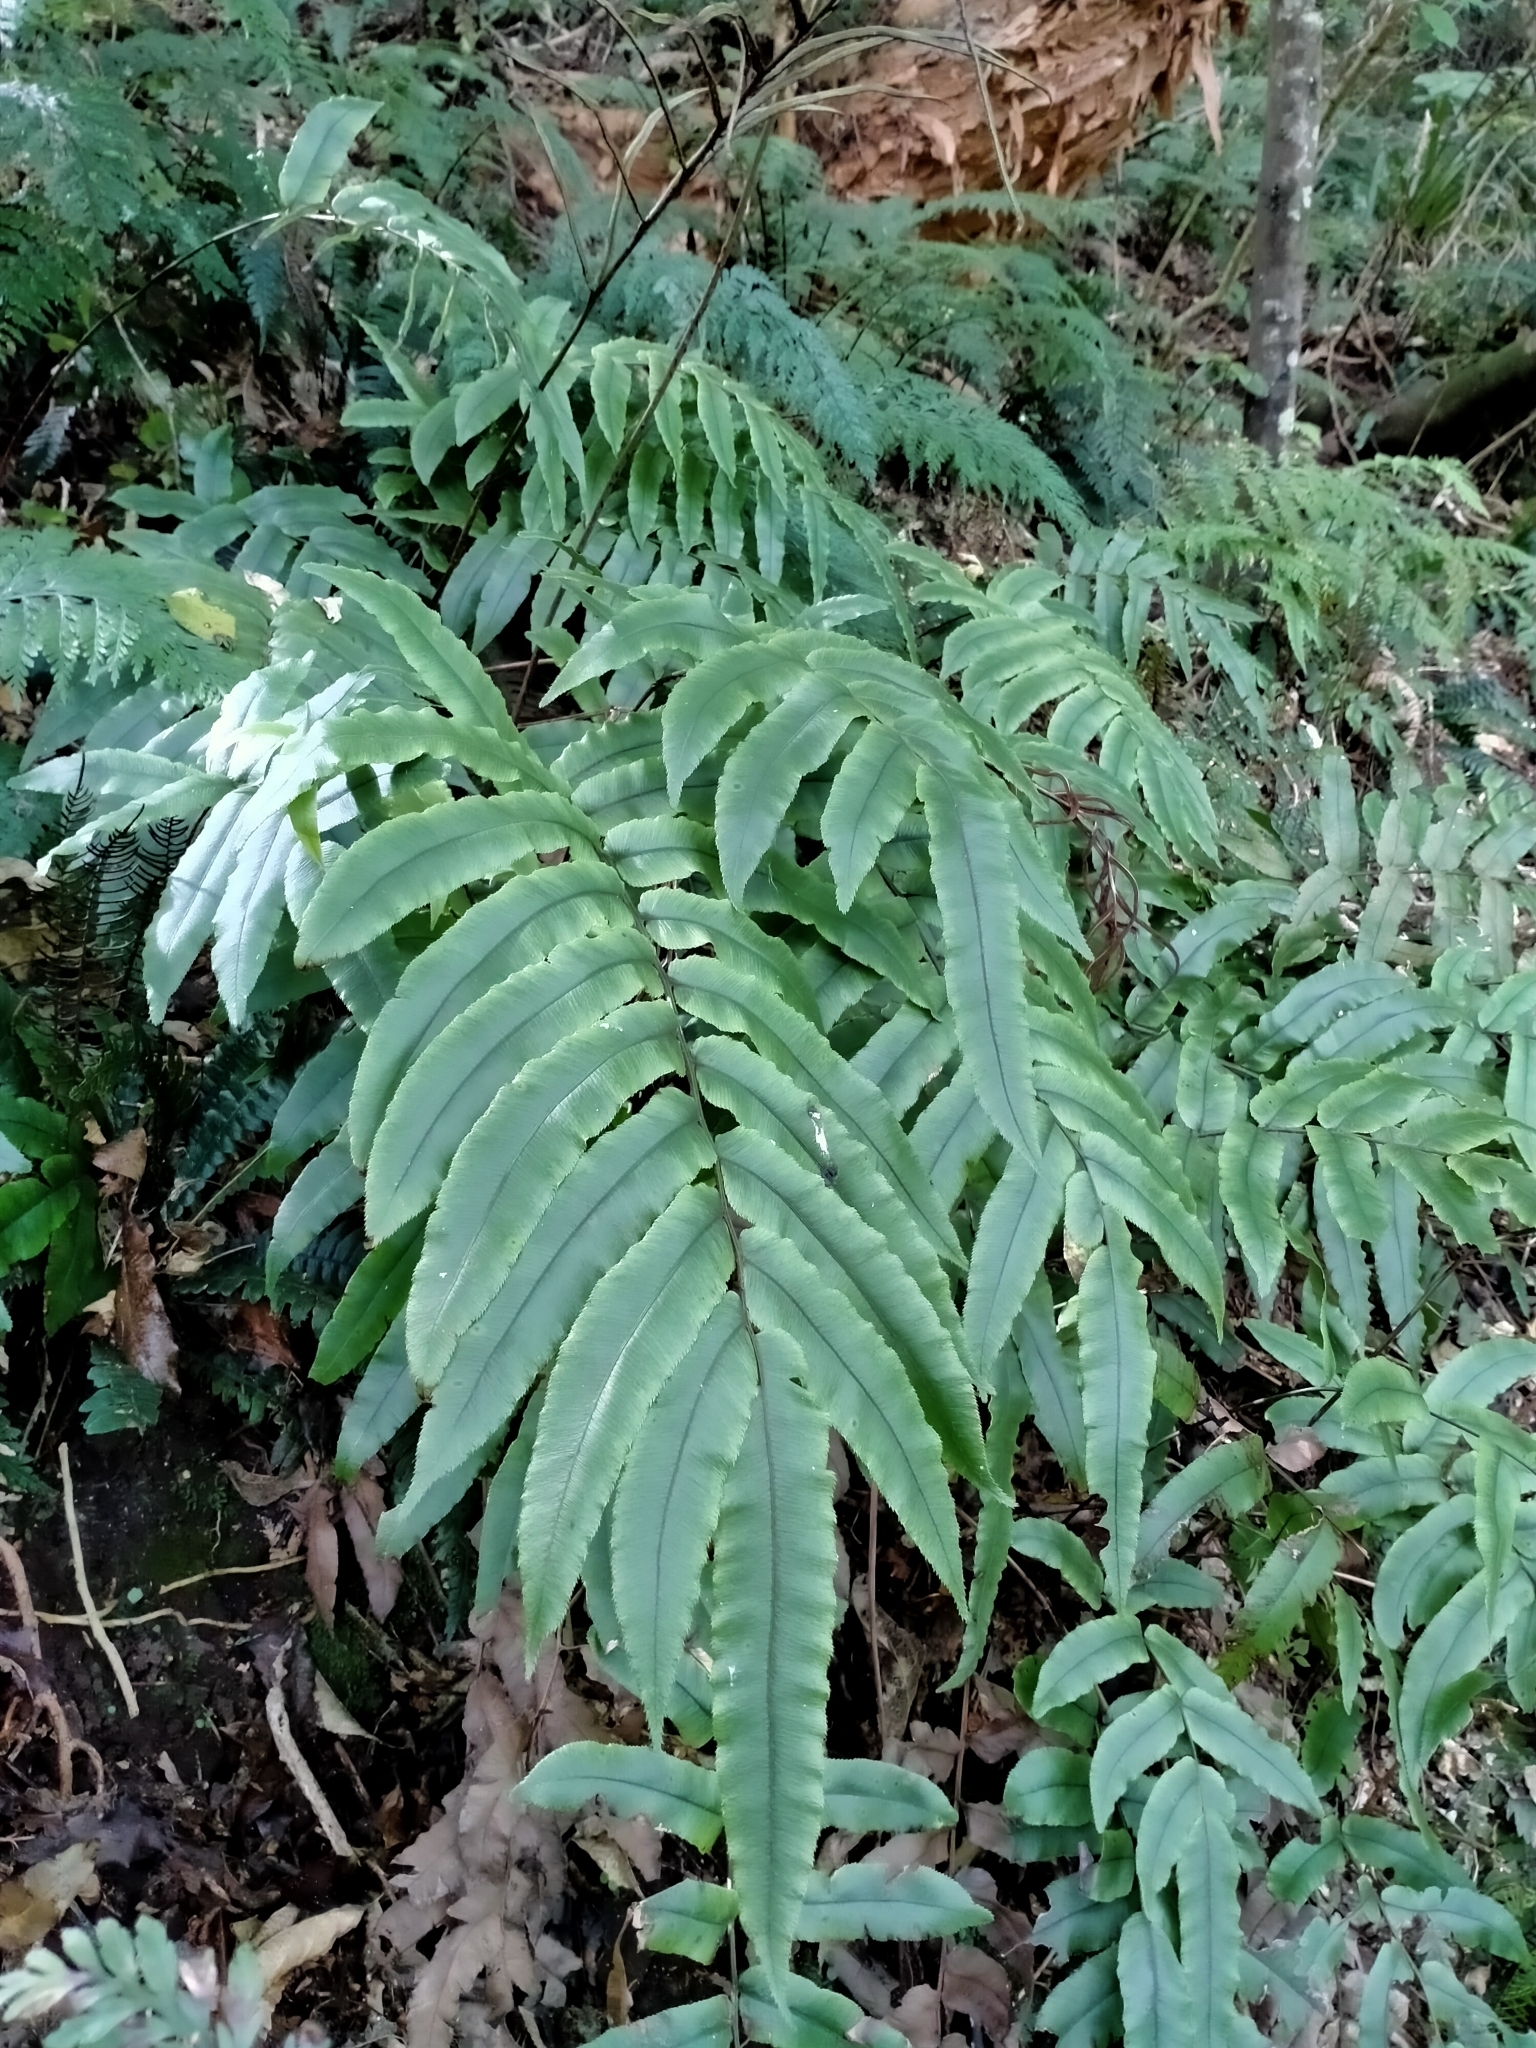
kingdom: Plantae
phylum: Tracheophyta
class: Polypodiopsida
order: Polypodiales
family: Blechnaceae
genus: Parablechnum
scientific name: Parablechnum procerum
